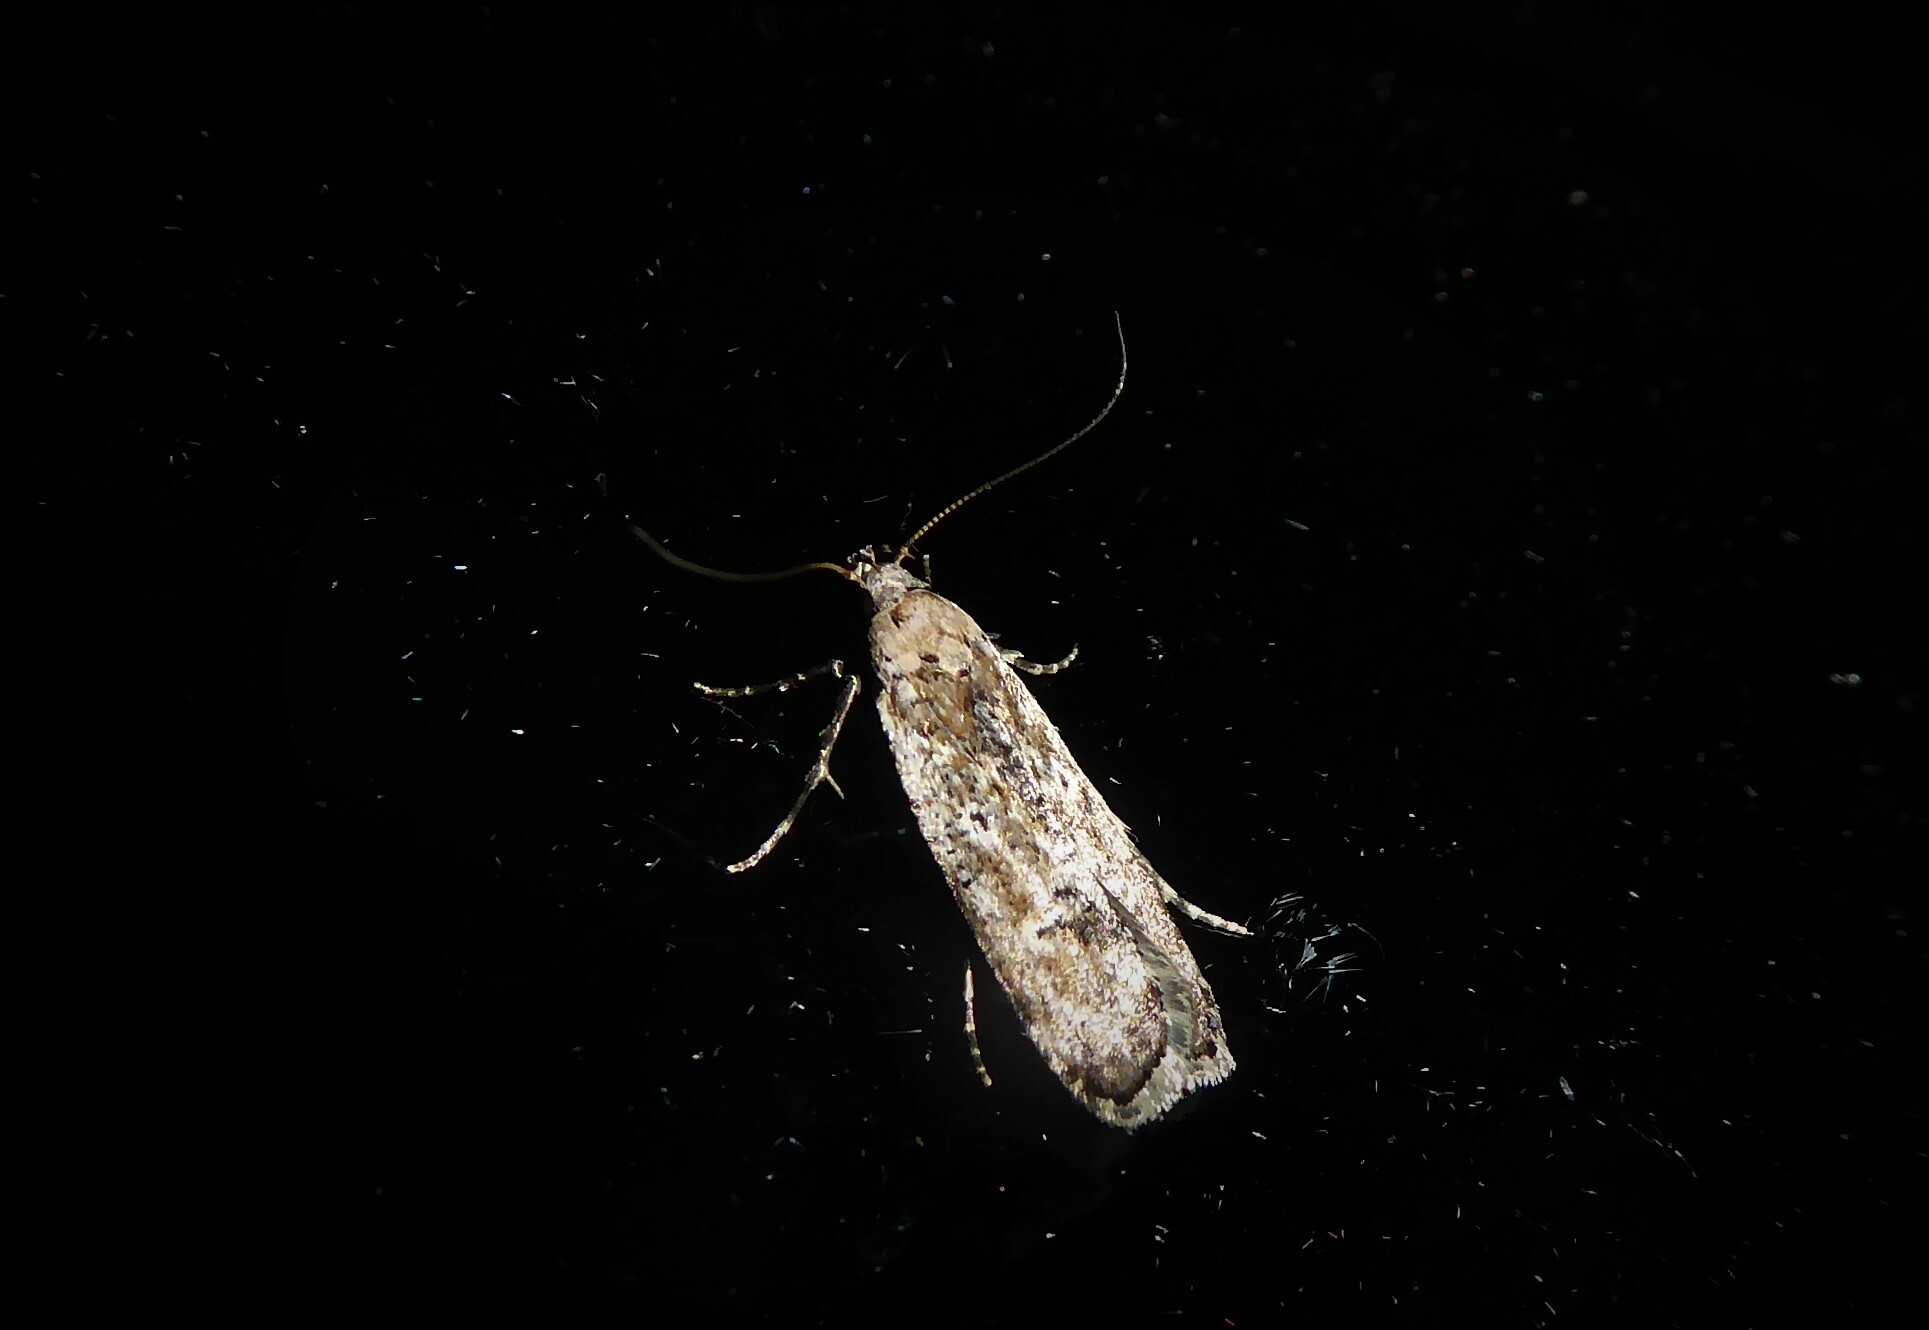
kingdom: Animalia
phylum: Arthropoda
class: Insecta
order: Lepidoptera
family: Gelechiidae
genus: Anisoplaca
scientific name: Anisoplaca achyrota
